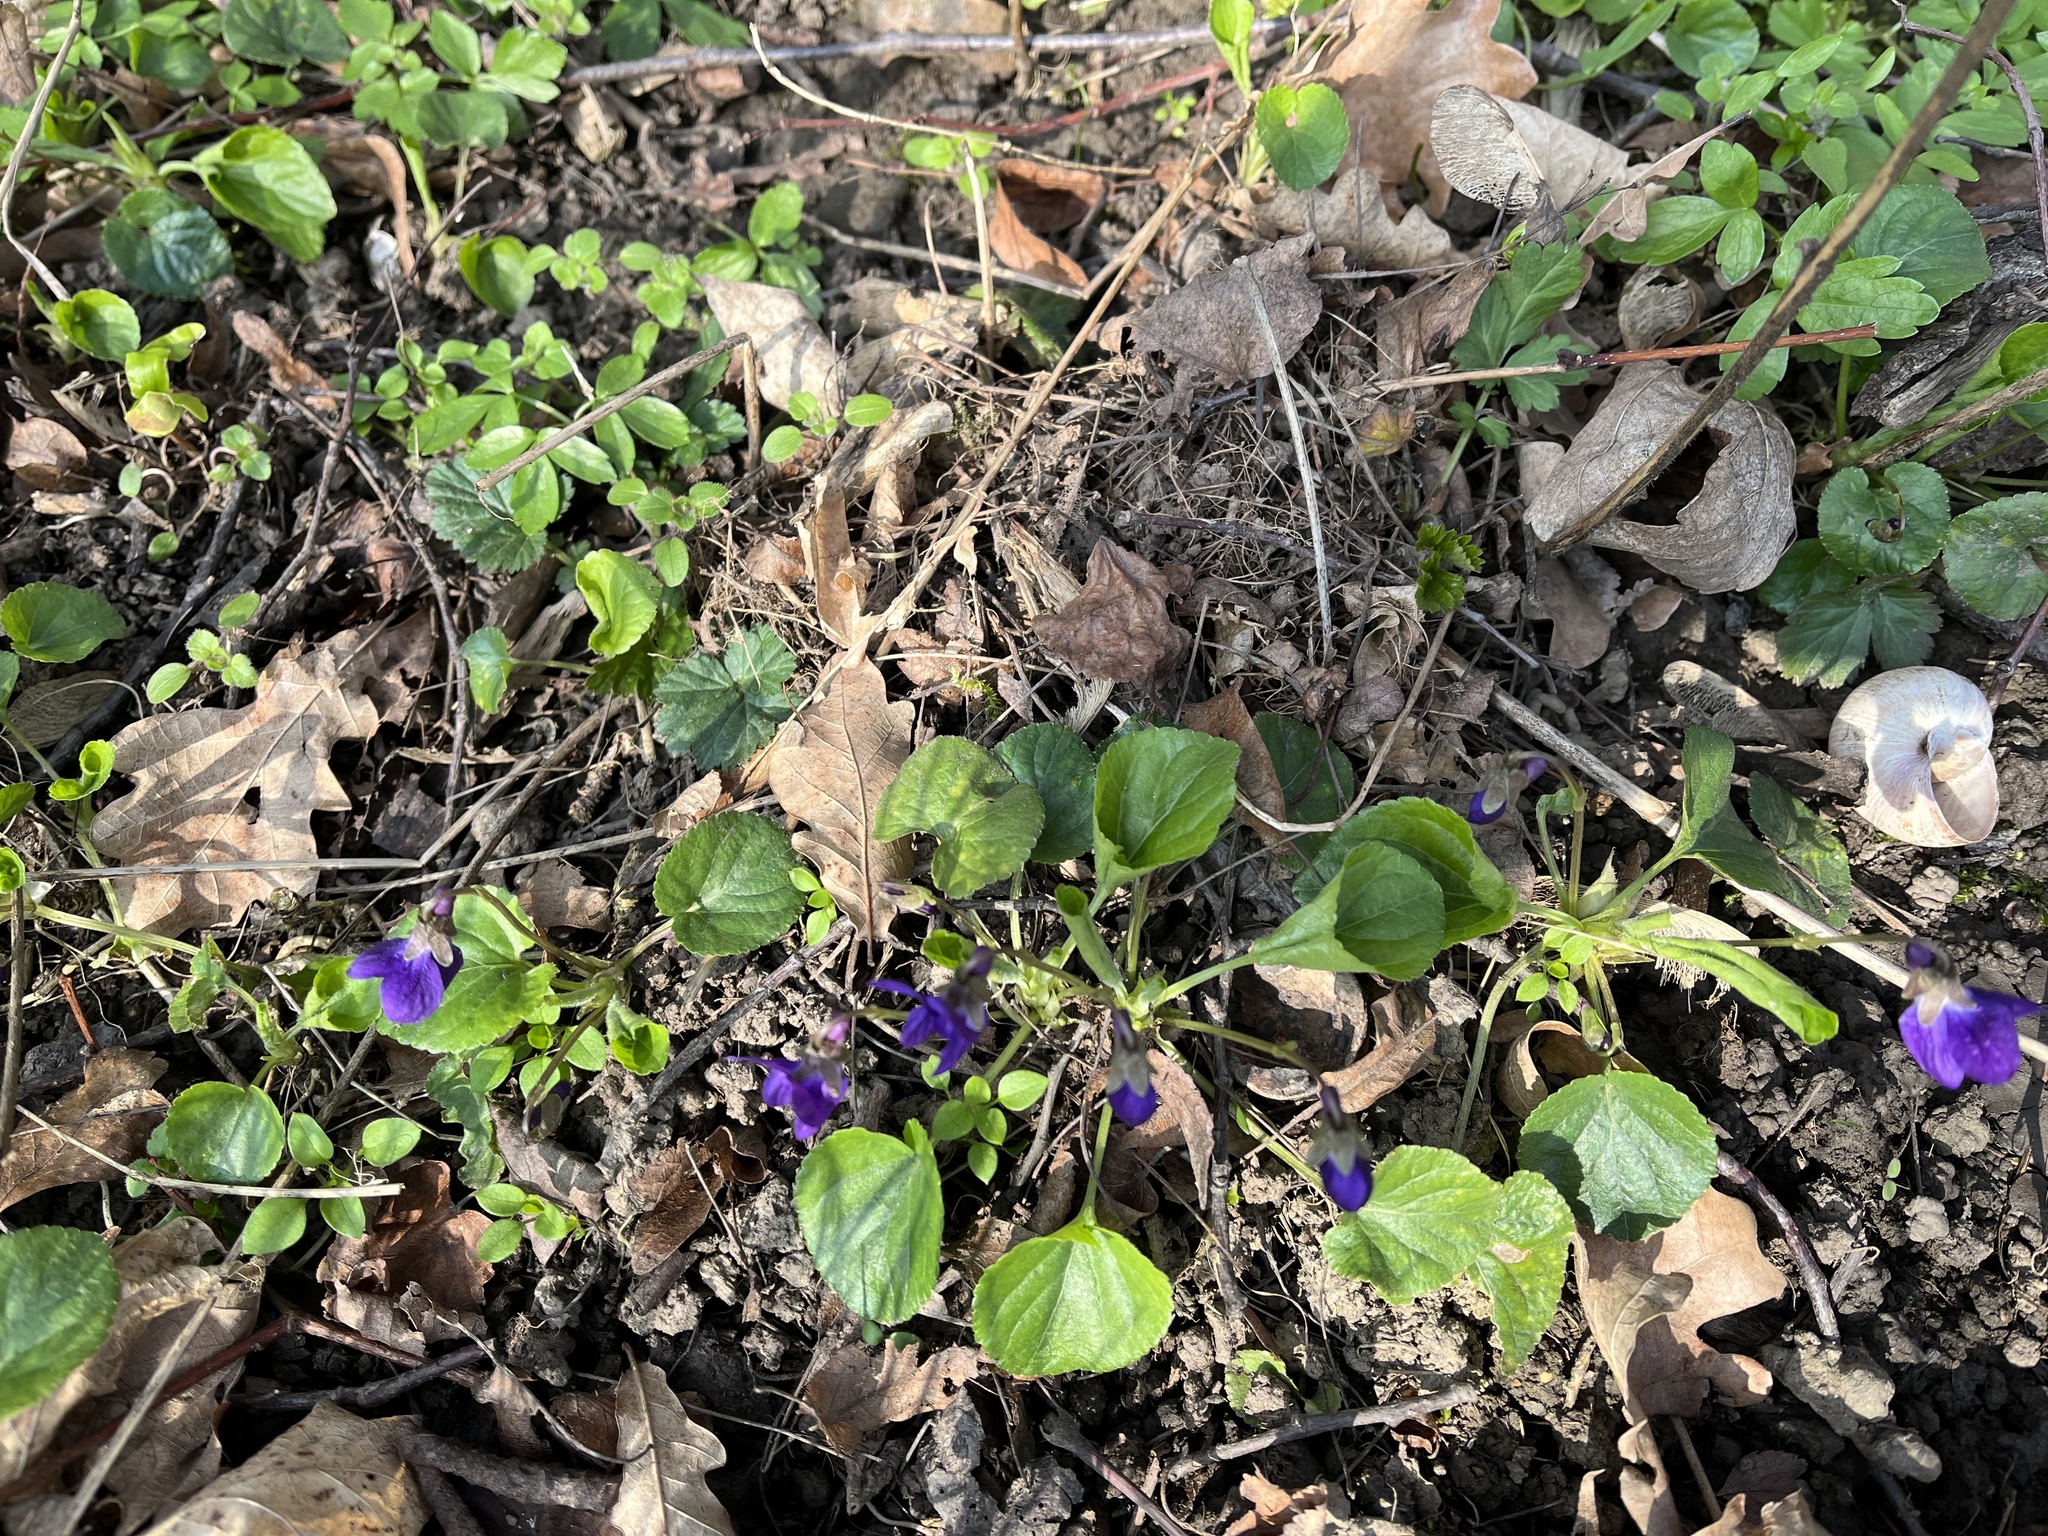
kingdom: Plantae
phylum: Tracheophyta
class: Magnoliopsida
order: Malpighiales
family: Violaceae
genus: Viola
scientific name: Viola odorata
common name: Sweet violet
